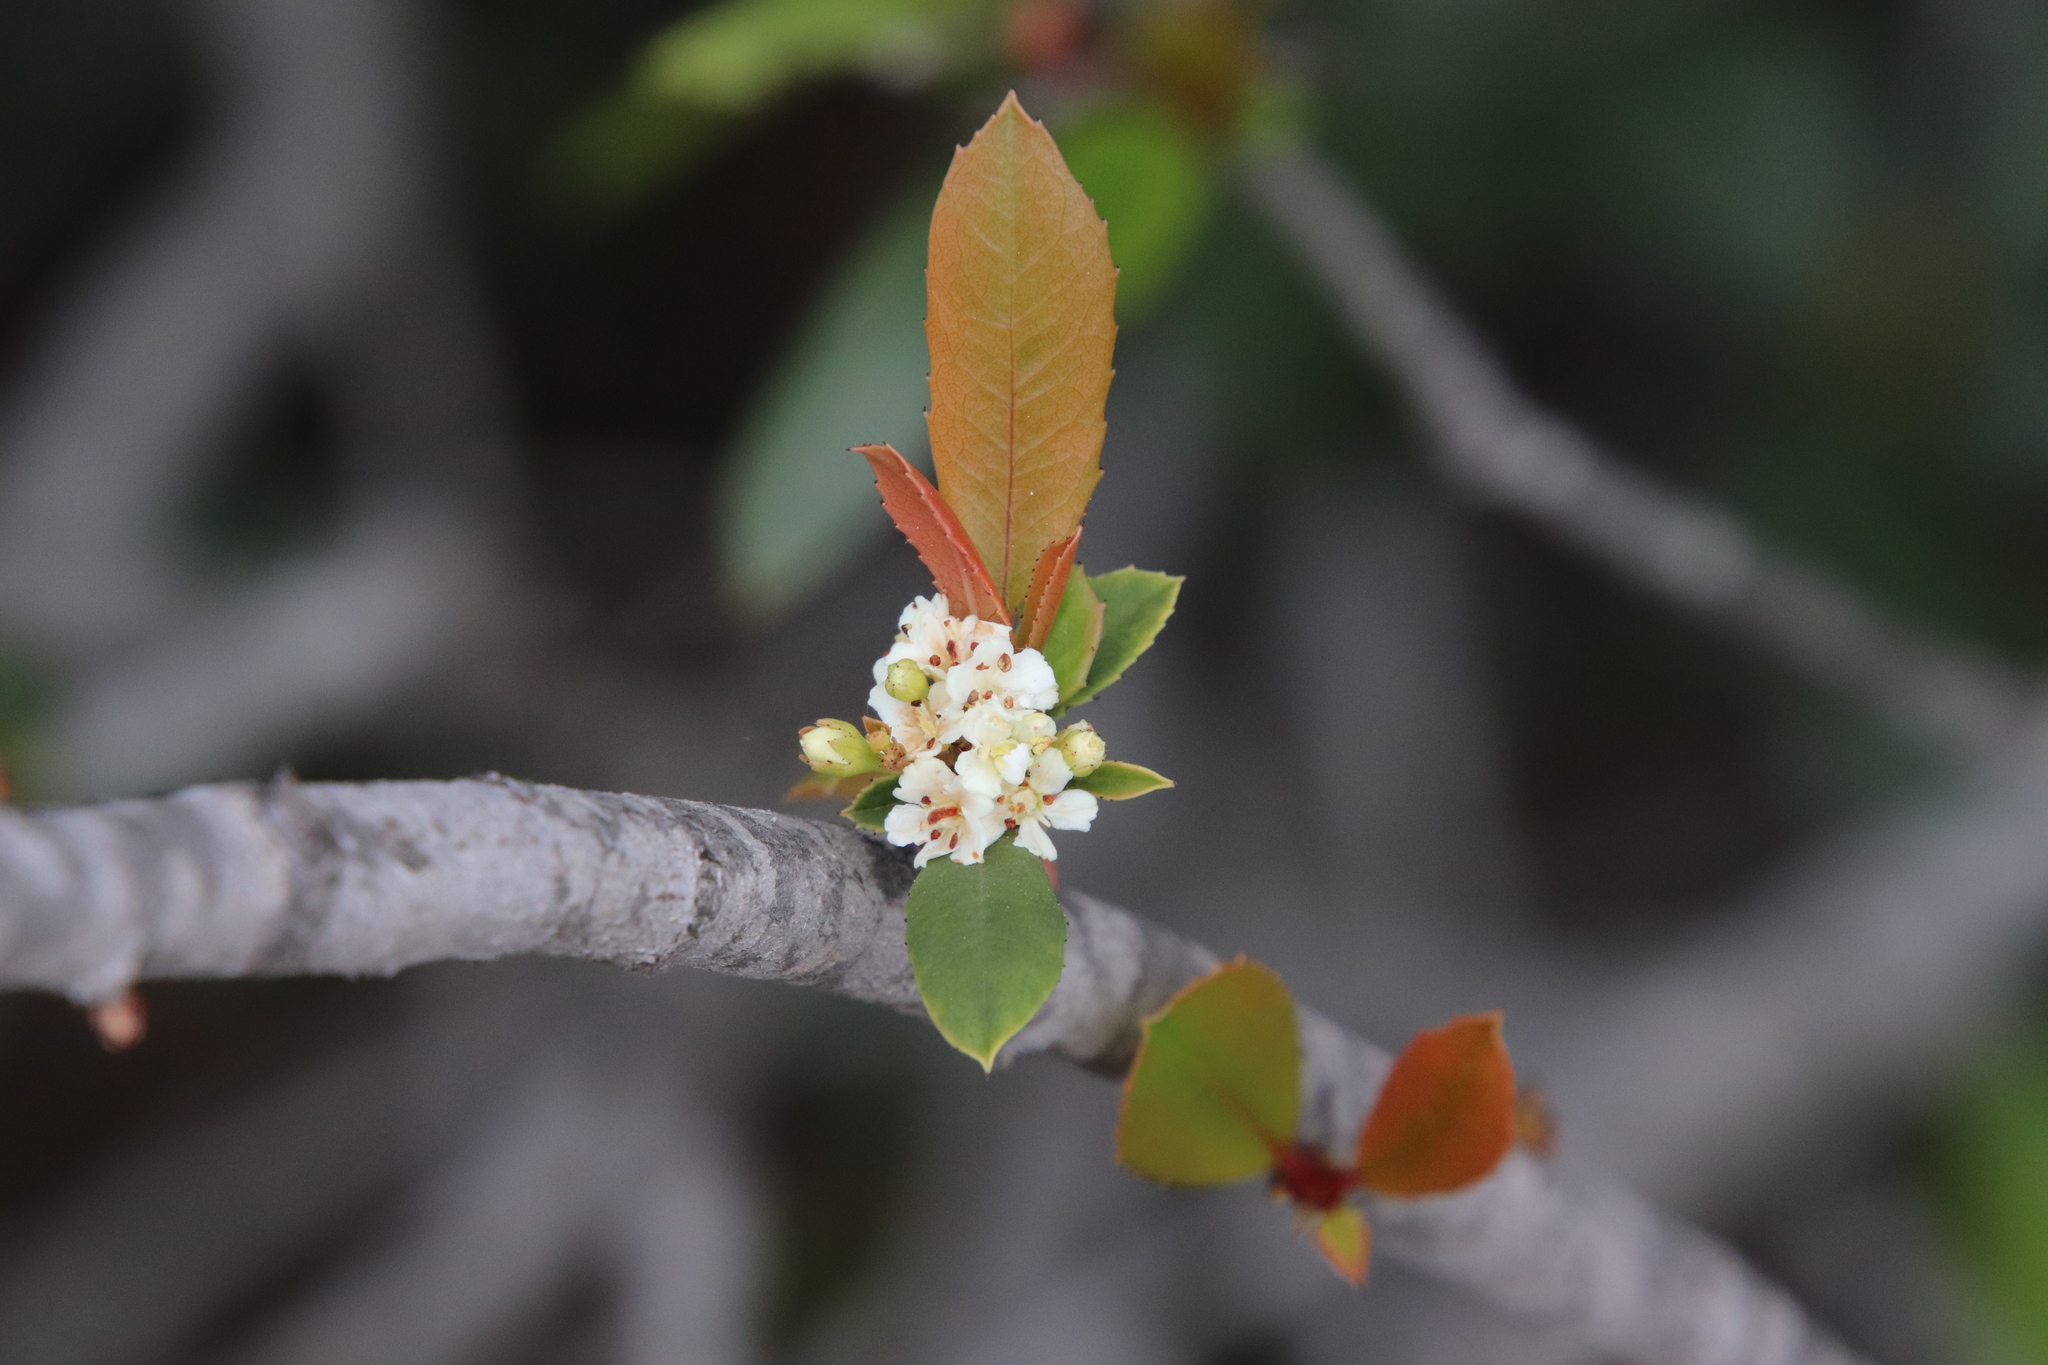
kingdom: Plantae
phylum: Tracheophyta
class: Magnoliopsida
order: Rosales
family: Rosaceae
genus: Heteromeles
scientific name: Heteromeles arbutifolia
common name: California-holly
